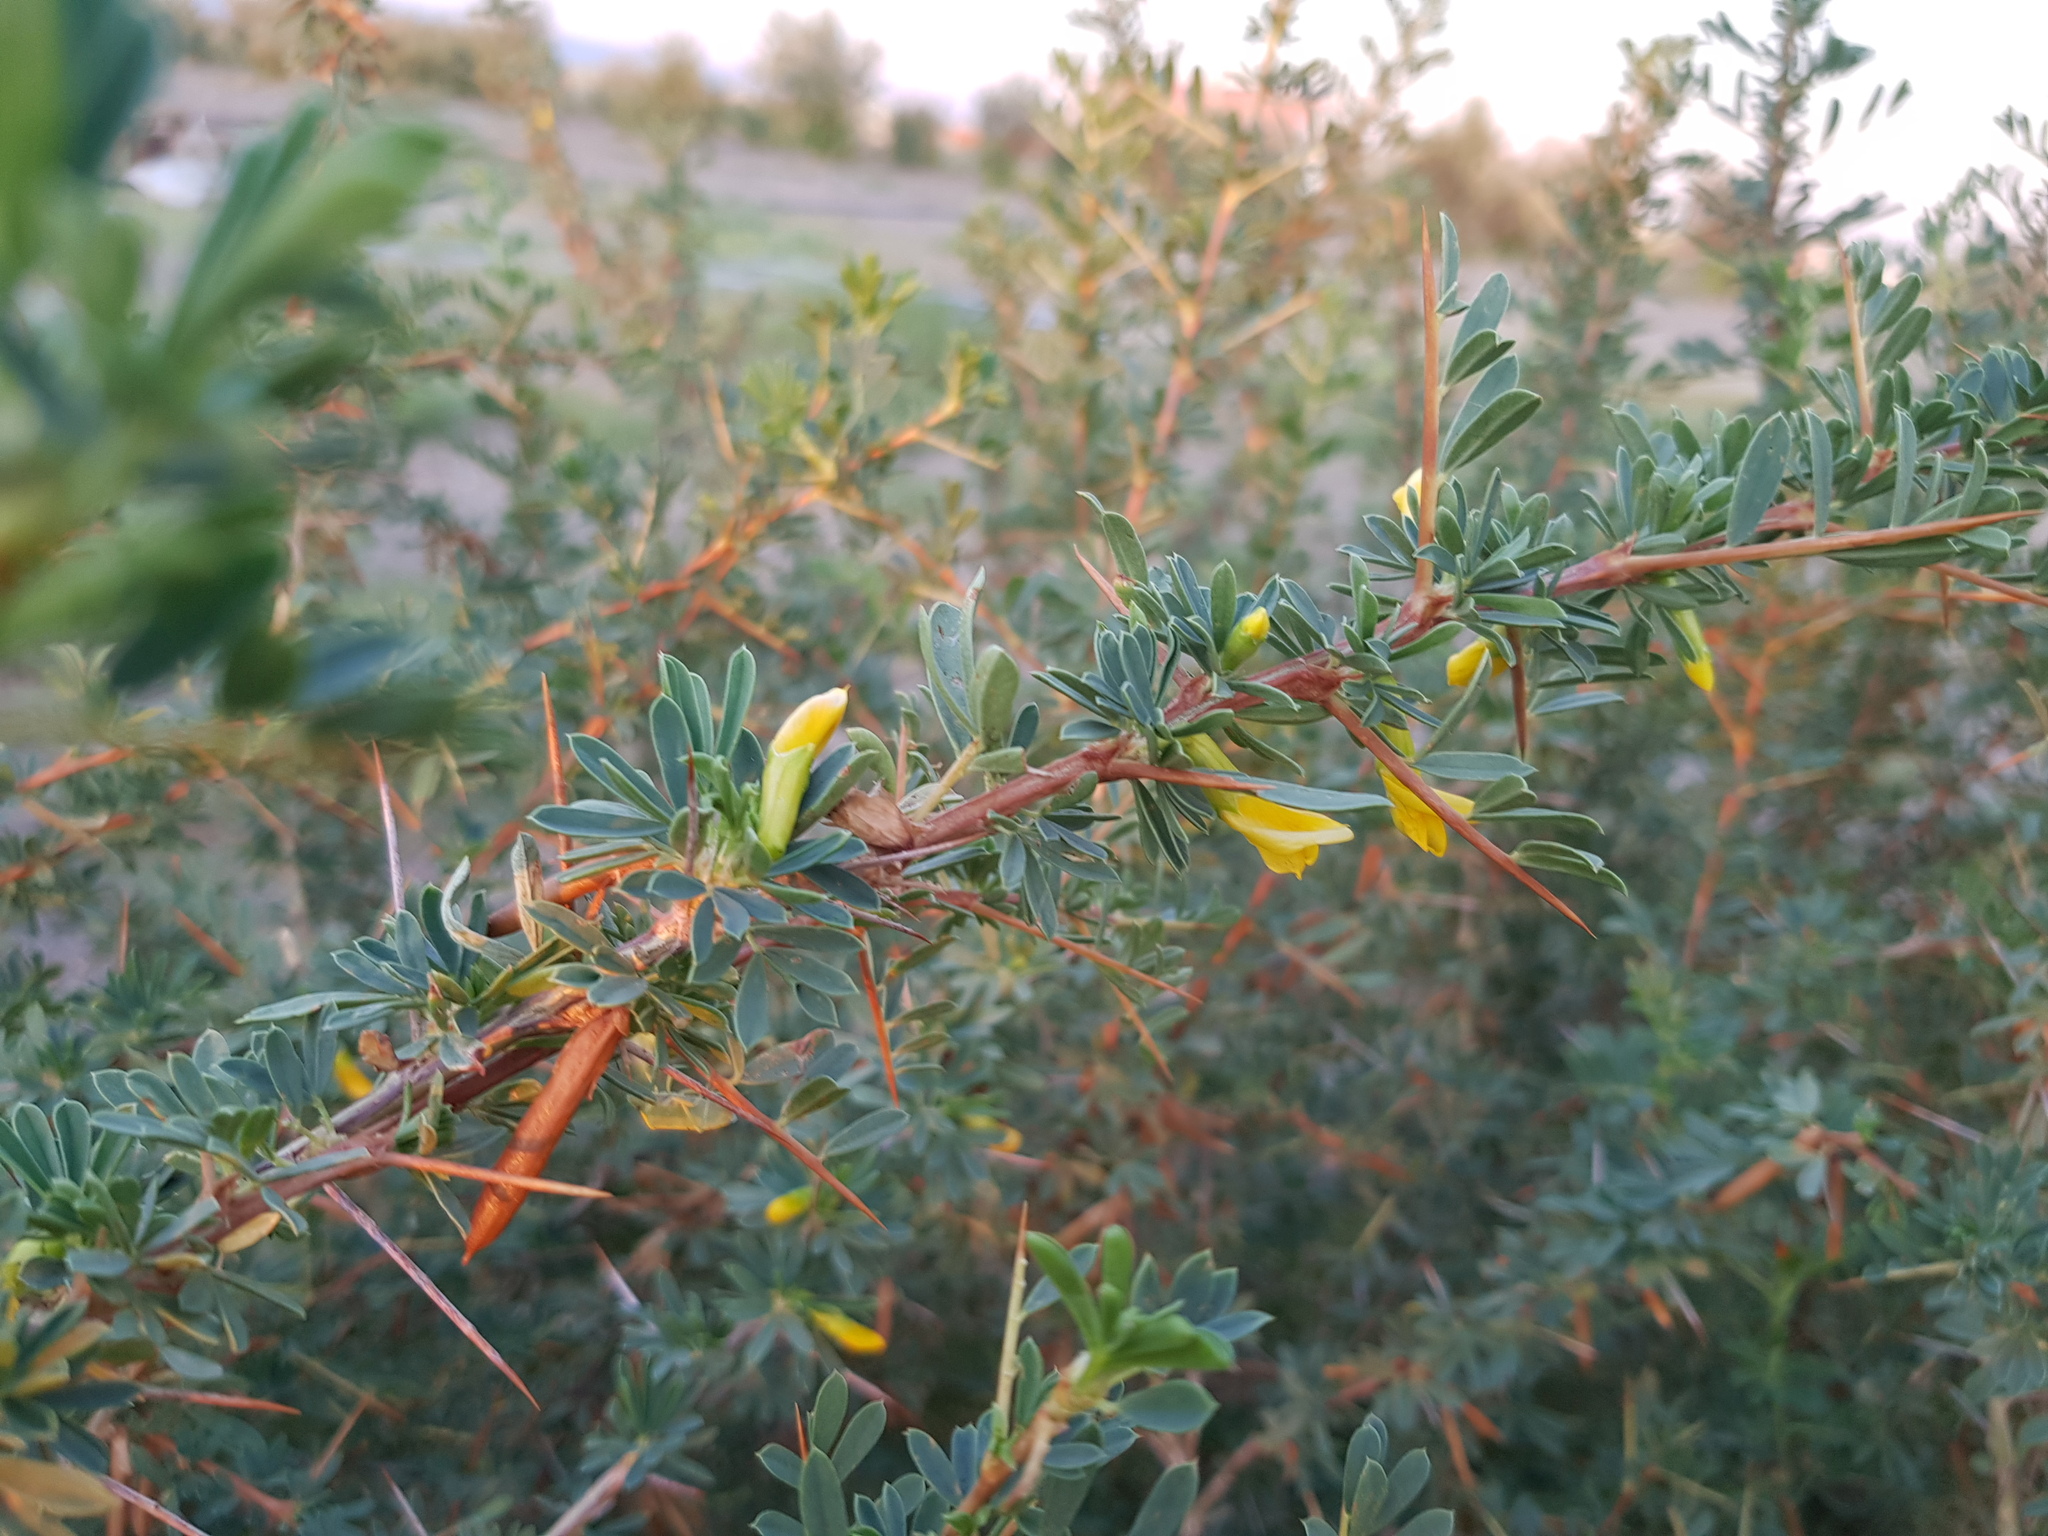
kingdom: Plantae
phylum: Tracheophyta
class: Magnoliopsida
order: Fabales
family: Fabaceae
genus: Caragana
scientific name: Caragana spinosa
